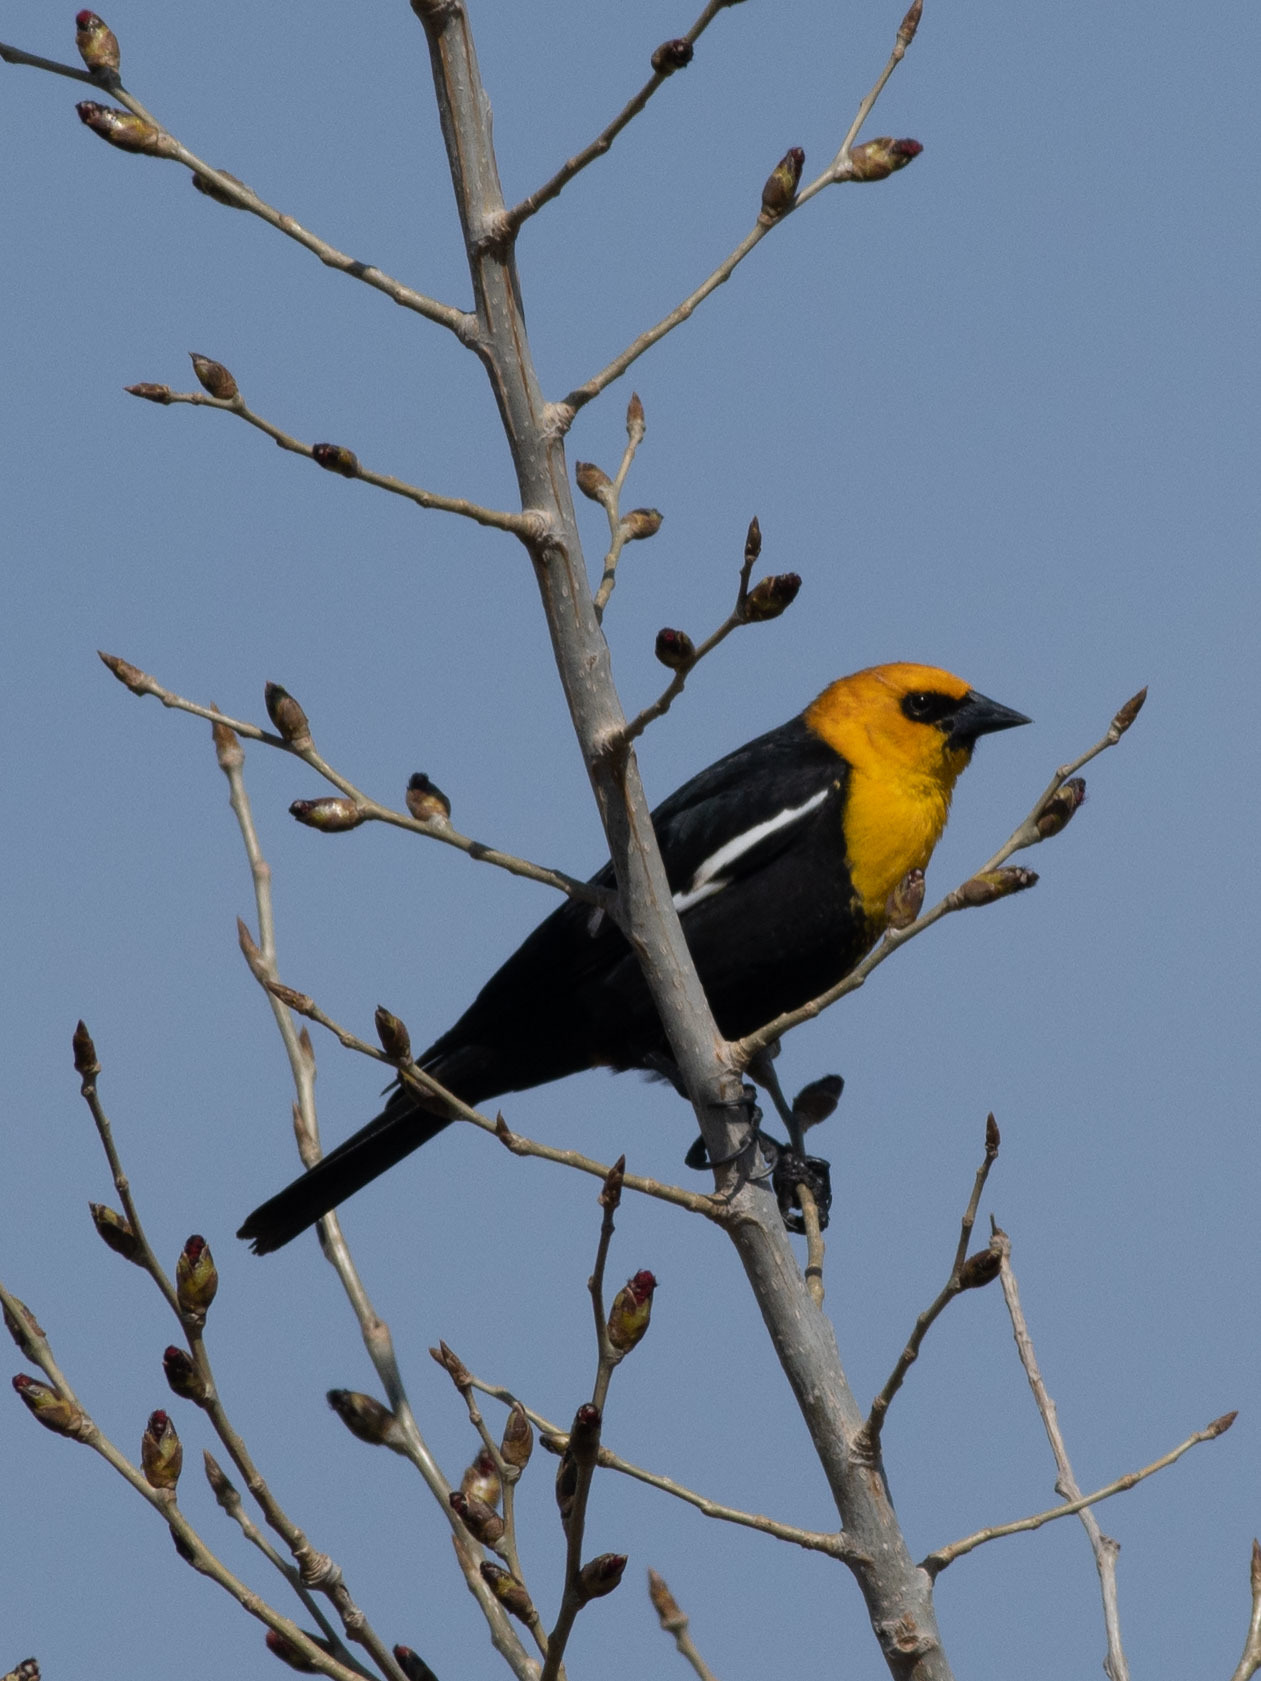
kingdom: Animalia
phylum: Chordata
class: Aves
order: Passeriformes
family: Icteridae
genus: Xanthocephalus
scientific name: Xanthocephalus xanthocephalus
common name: Yellow-headed blackbird
